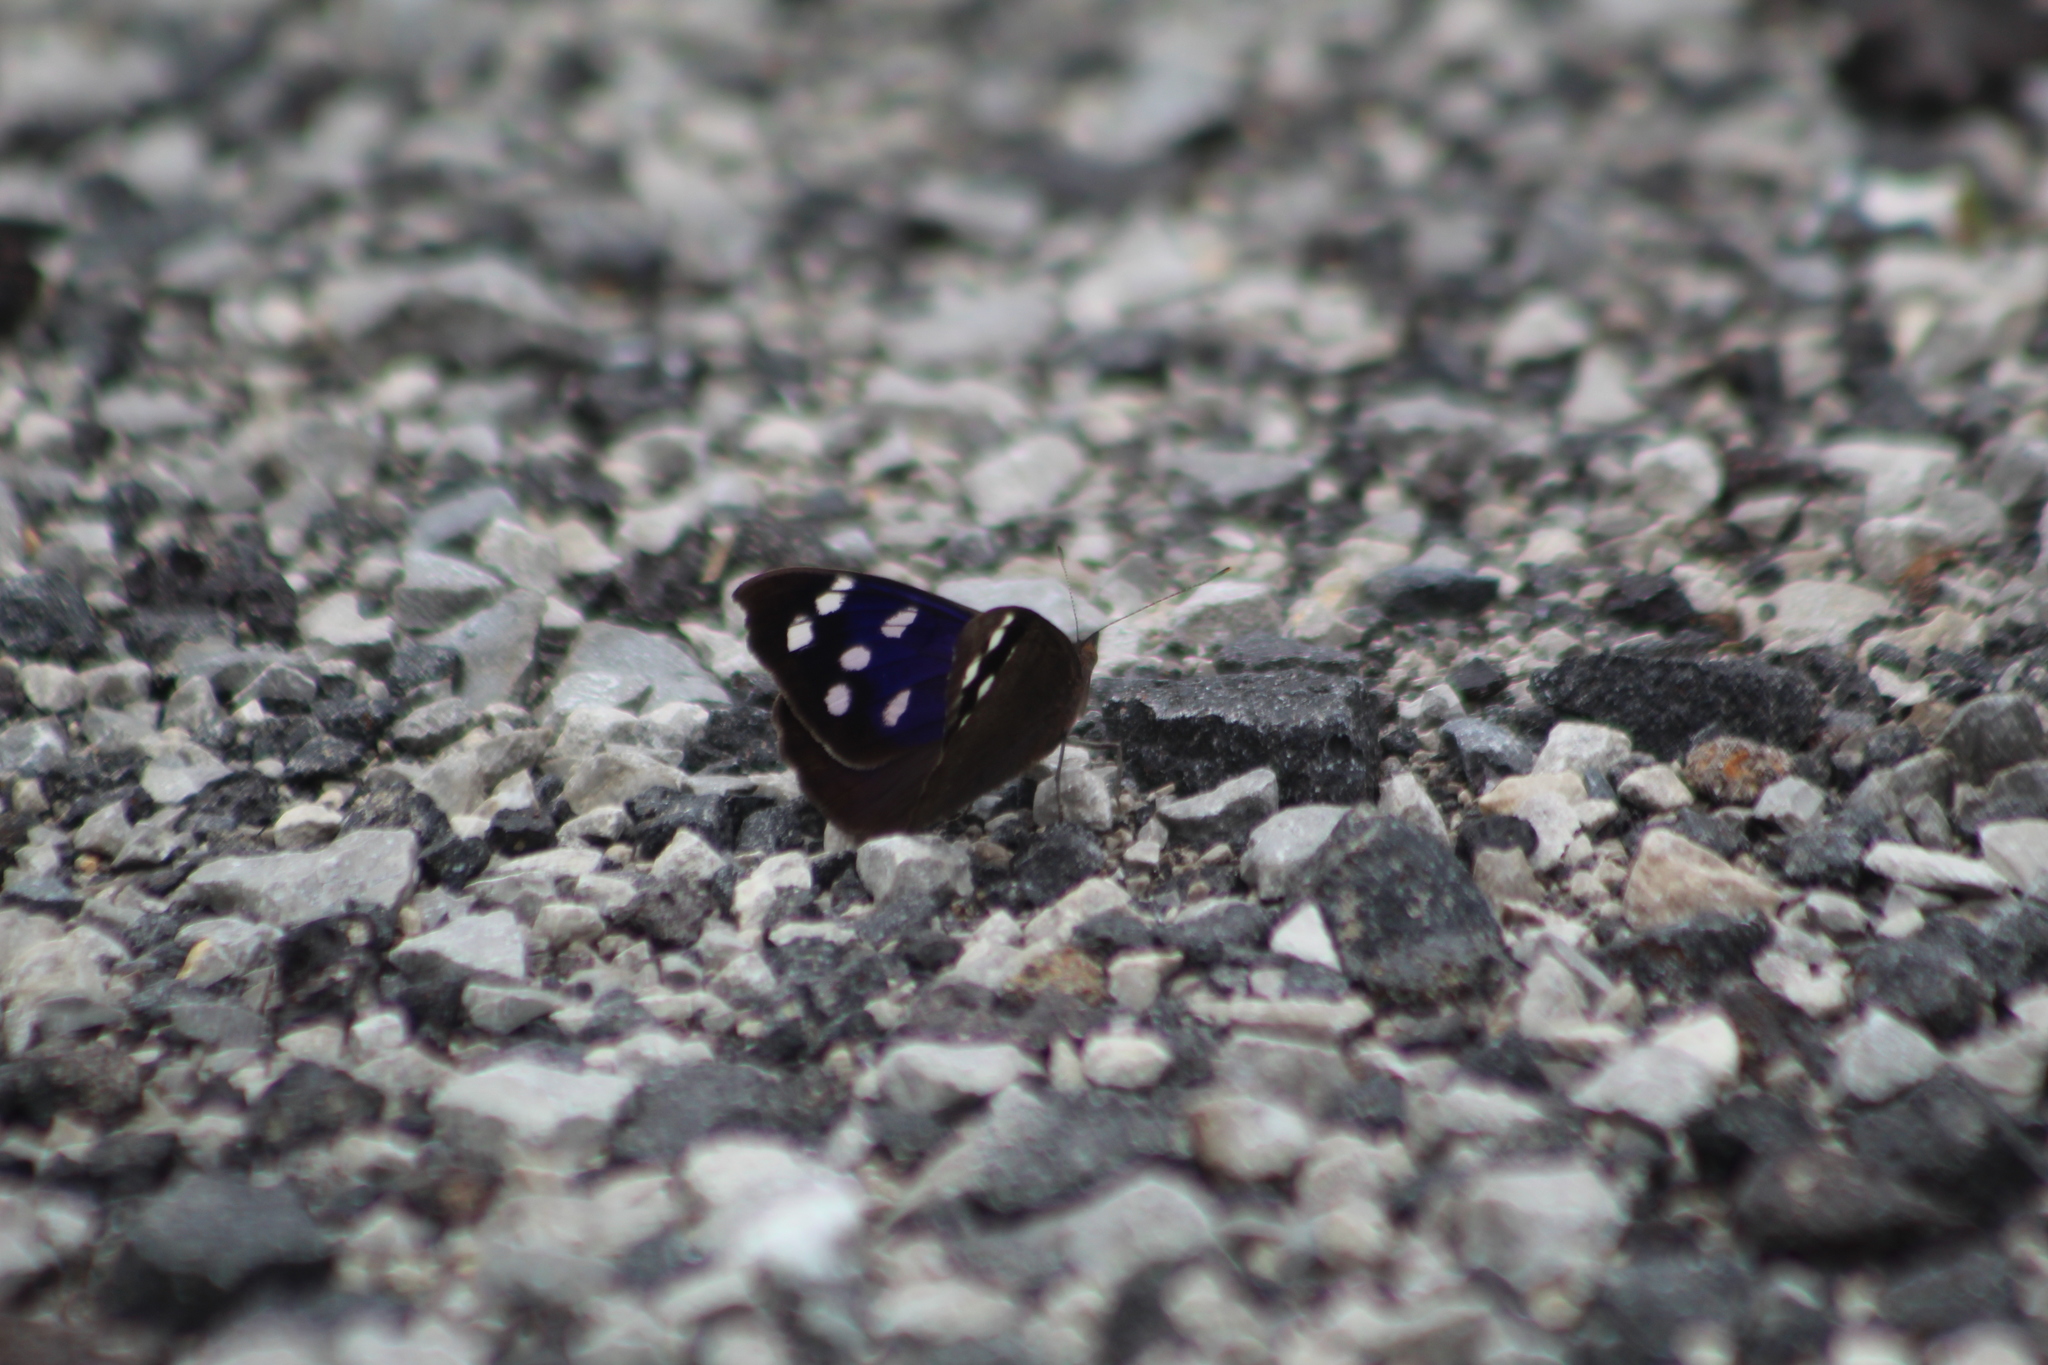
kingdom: Animalia
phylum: Arthropoda
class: Insecta
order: Lepidoptera
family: Nymphalidae
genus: Eunica
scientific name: Eunica tatila
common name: Florida purplewing
